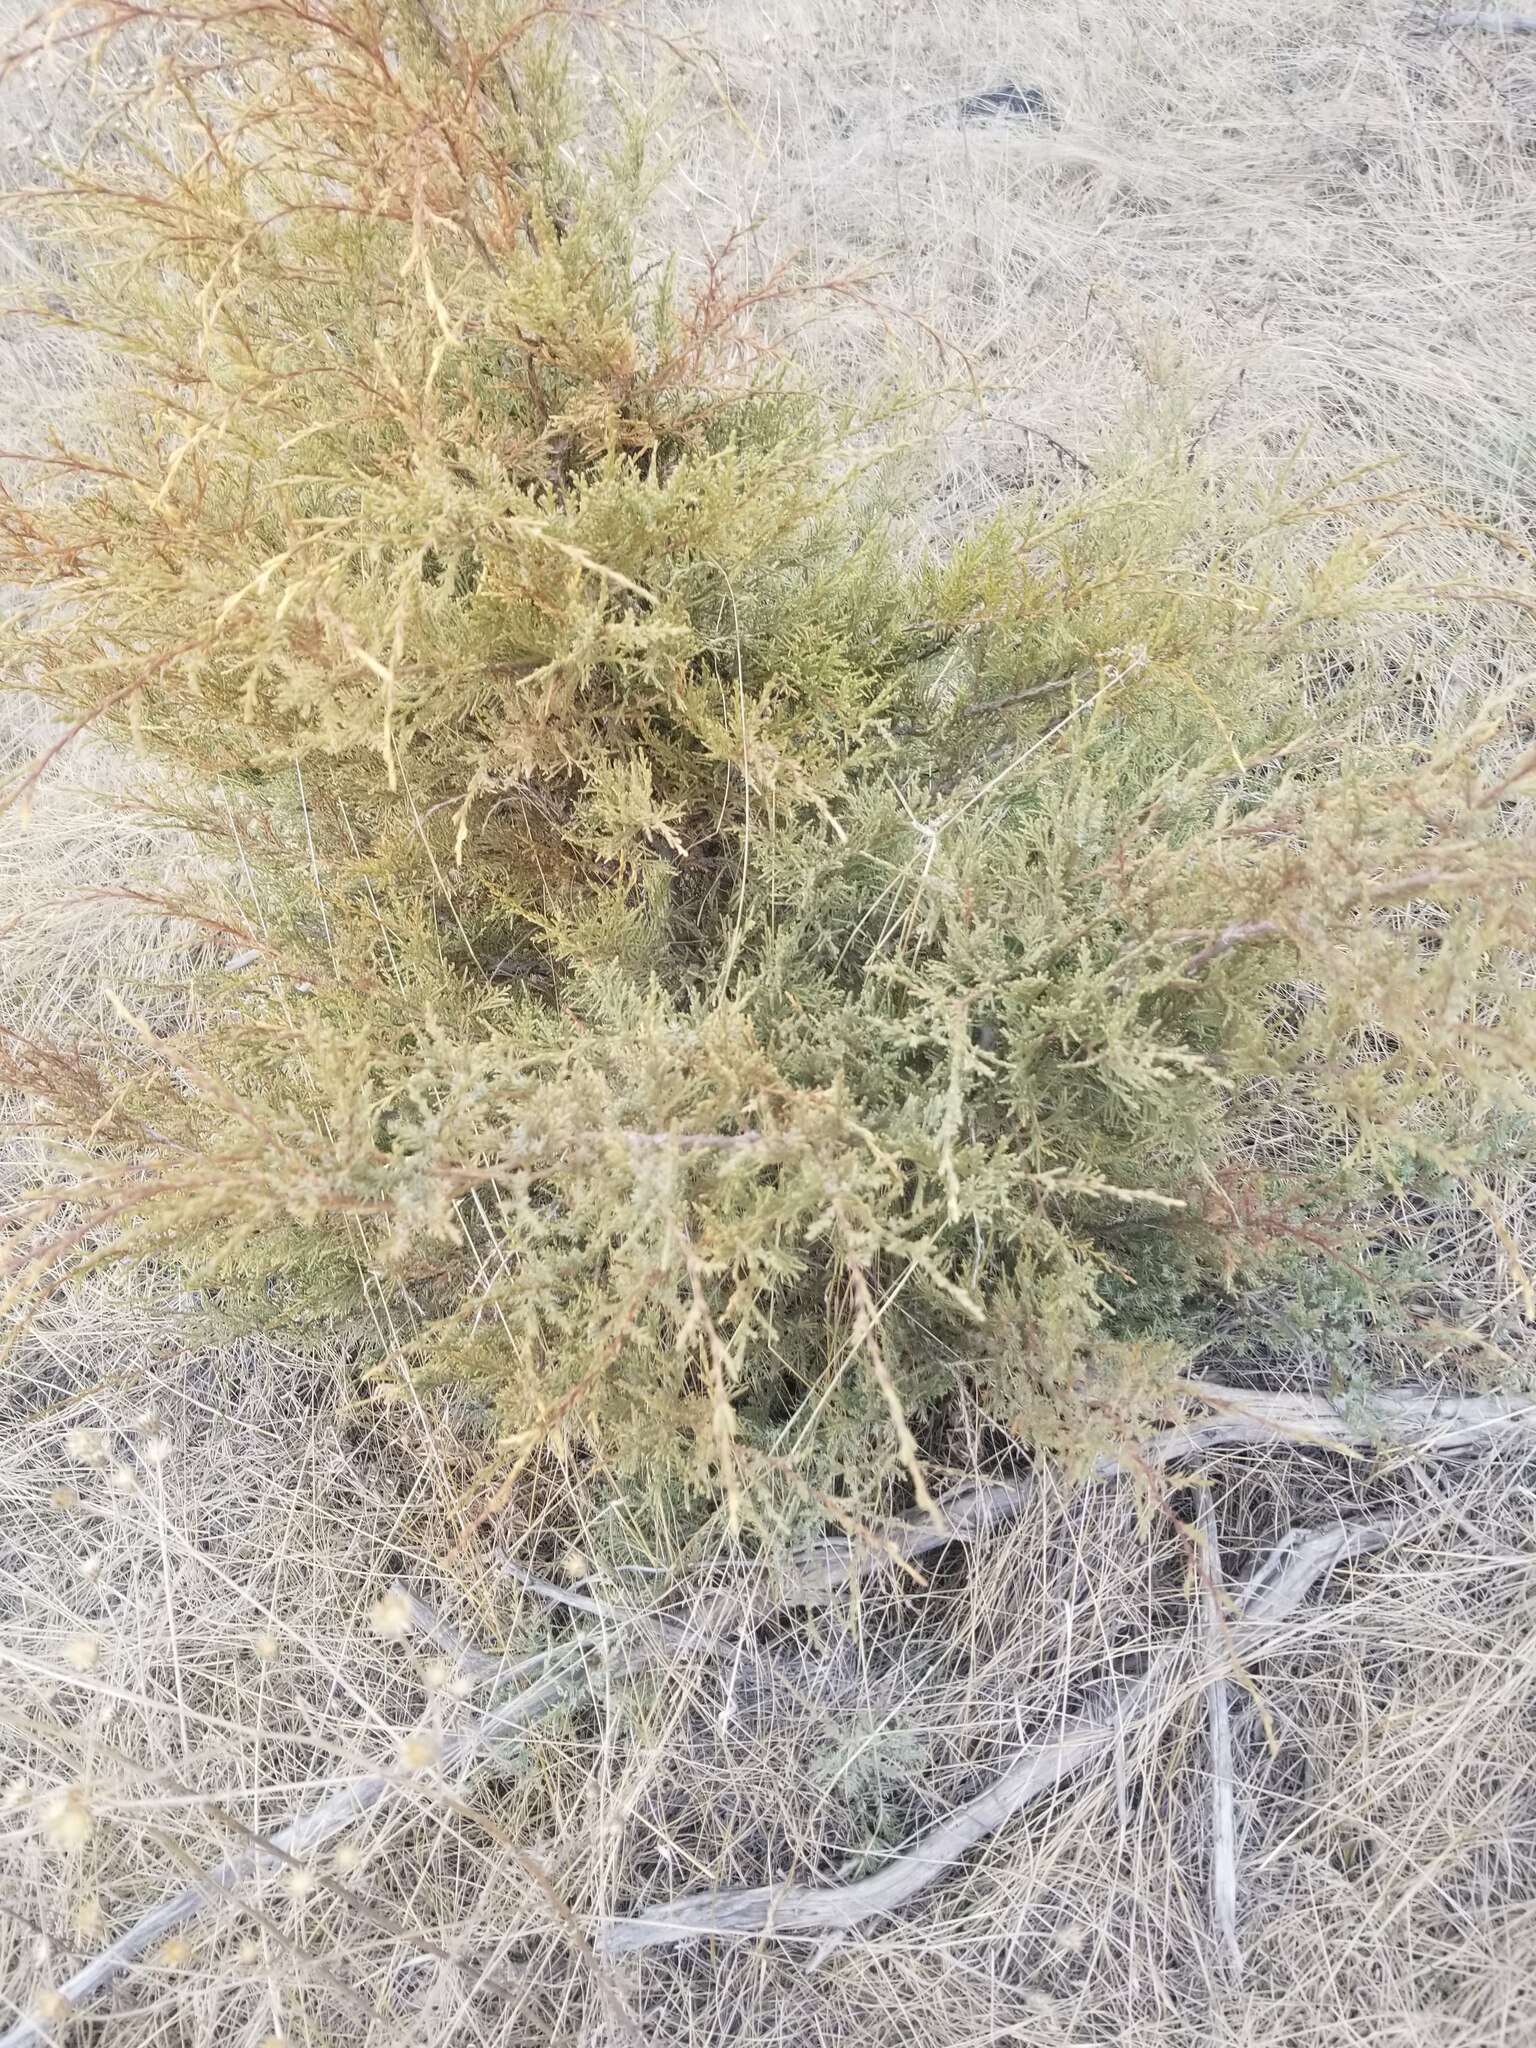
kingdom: Plantae
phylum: Tracheophyta
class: Pinopsida
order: Pinales
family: Cupressaceae
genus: Juniperus
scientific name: Juniperus scopulorum
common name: Rocky mountain juniper
